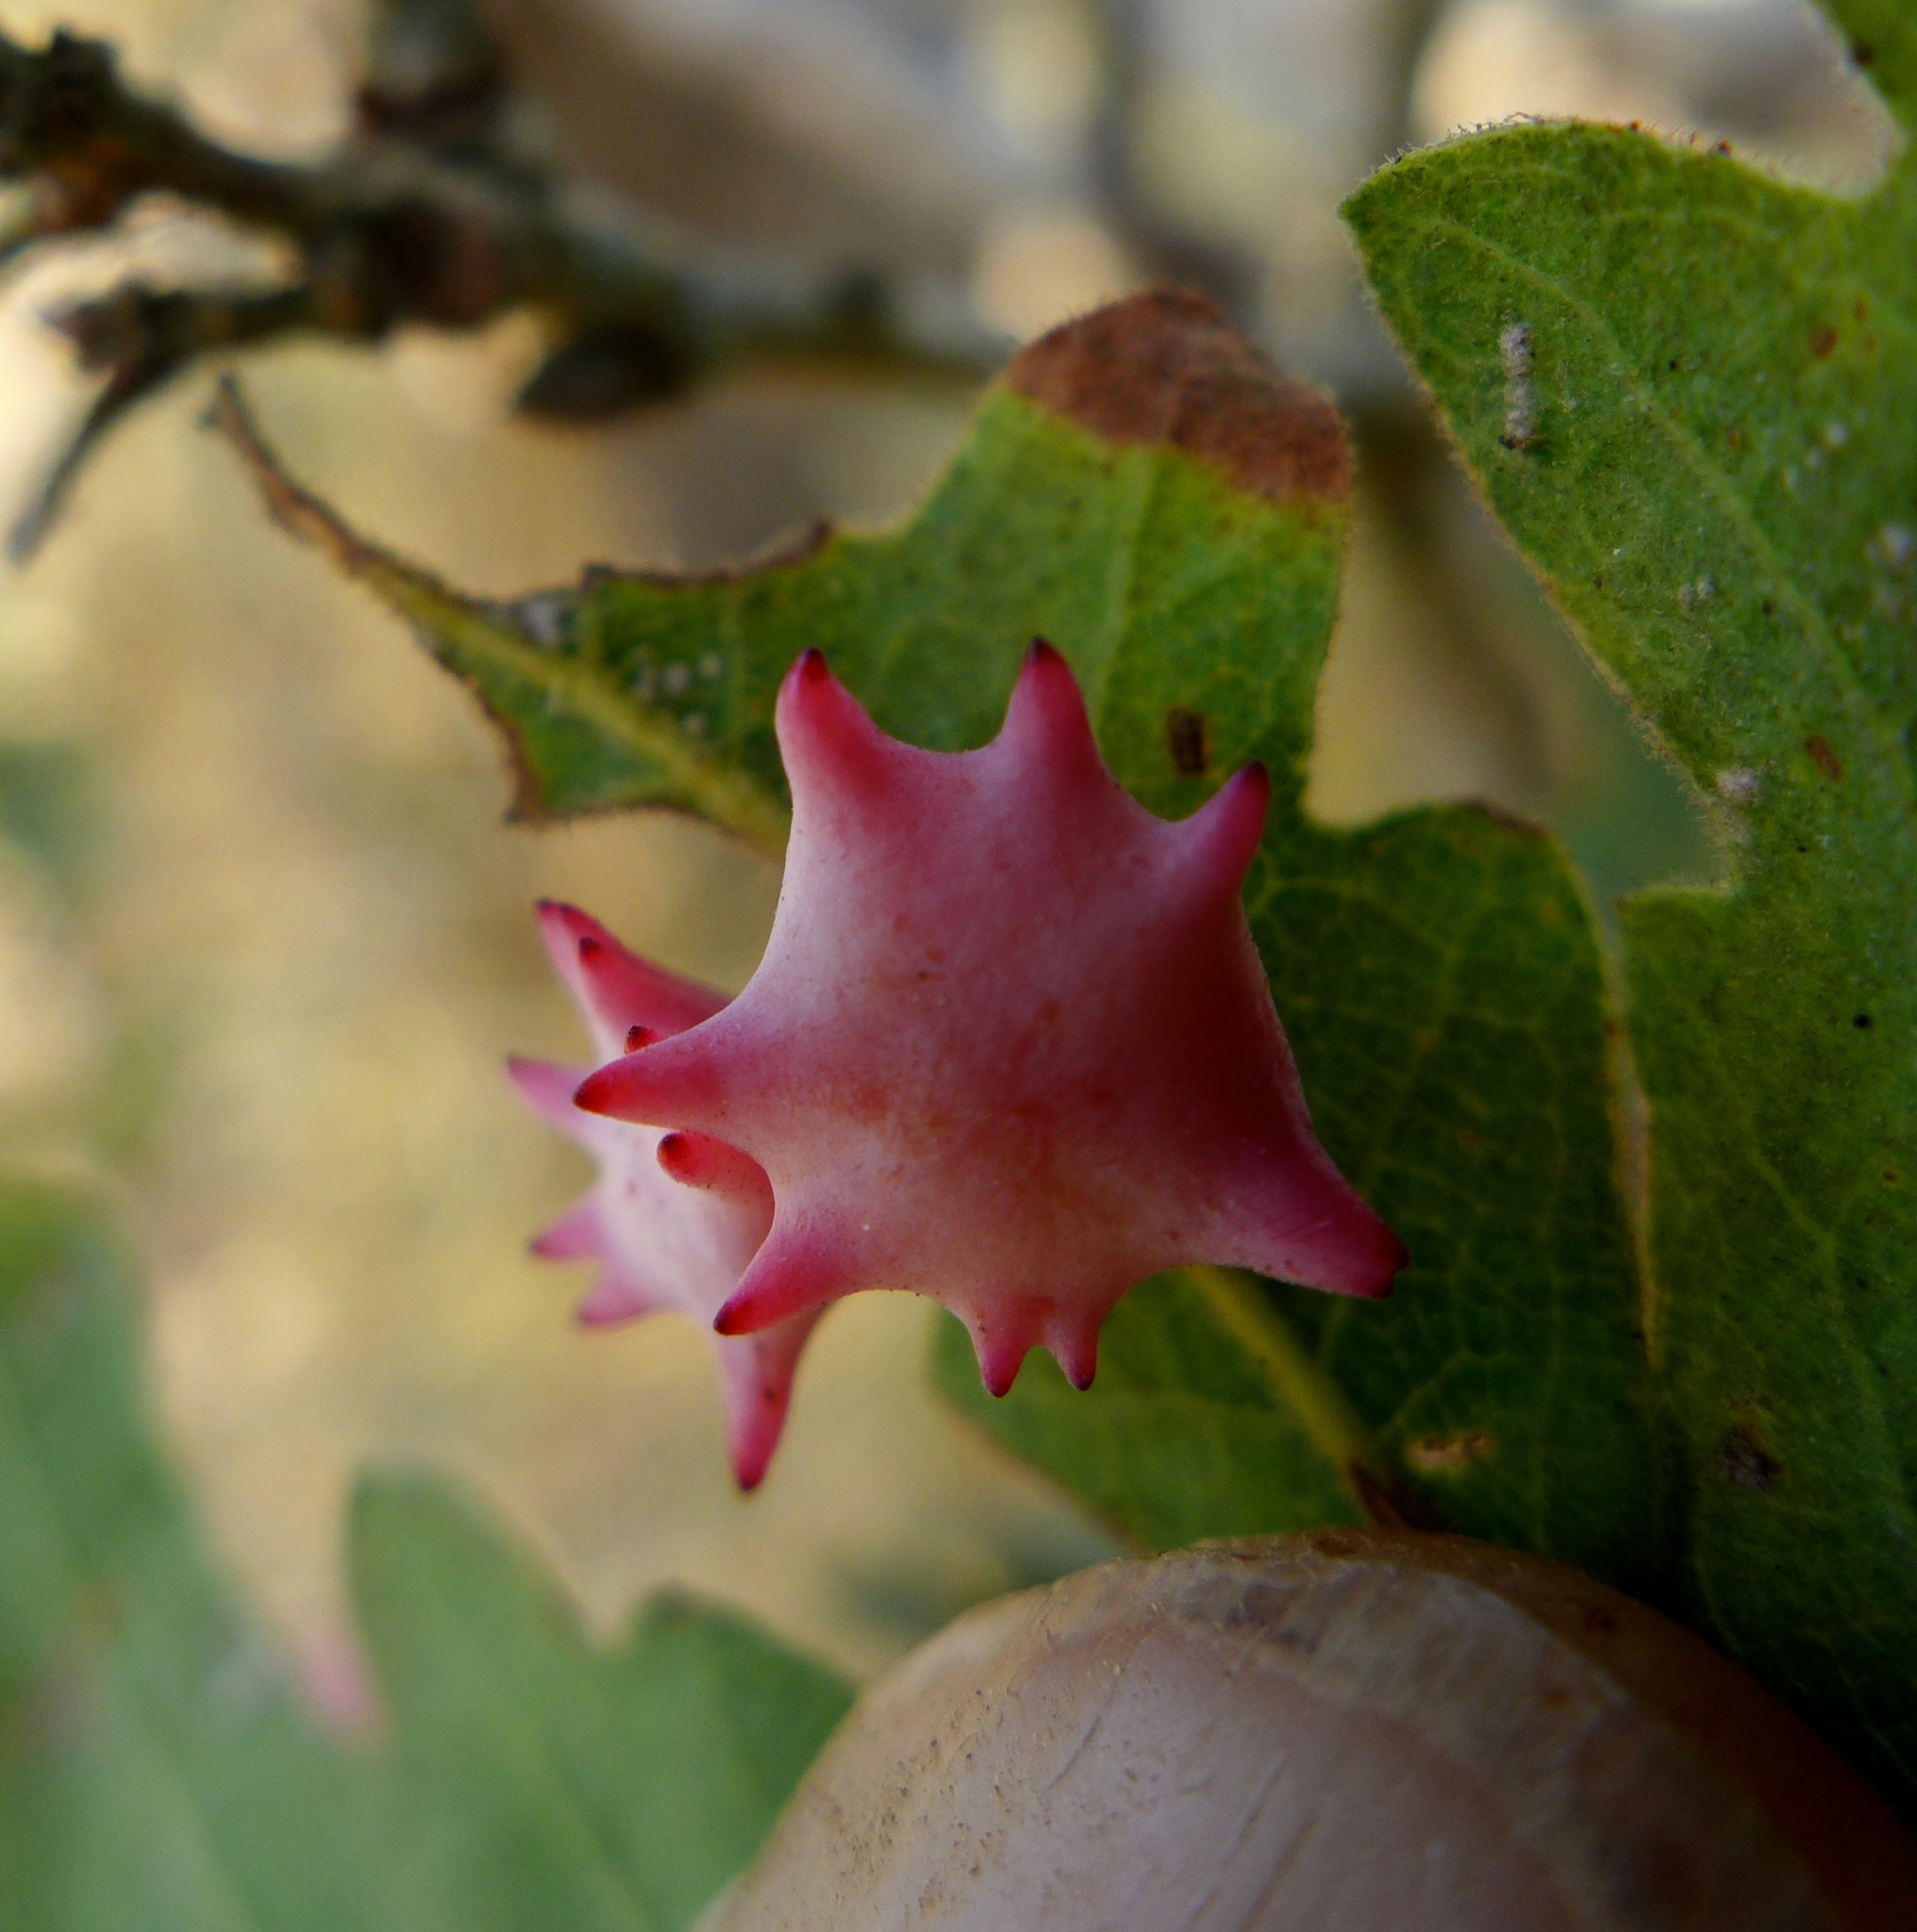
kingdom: Animalia
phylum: Arthropoda
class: Insecta
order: Hymenoptera
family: Cynipidae
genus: Cynips
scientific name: Cynips douglasi
